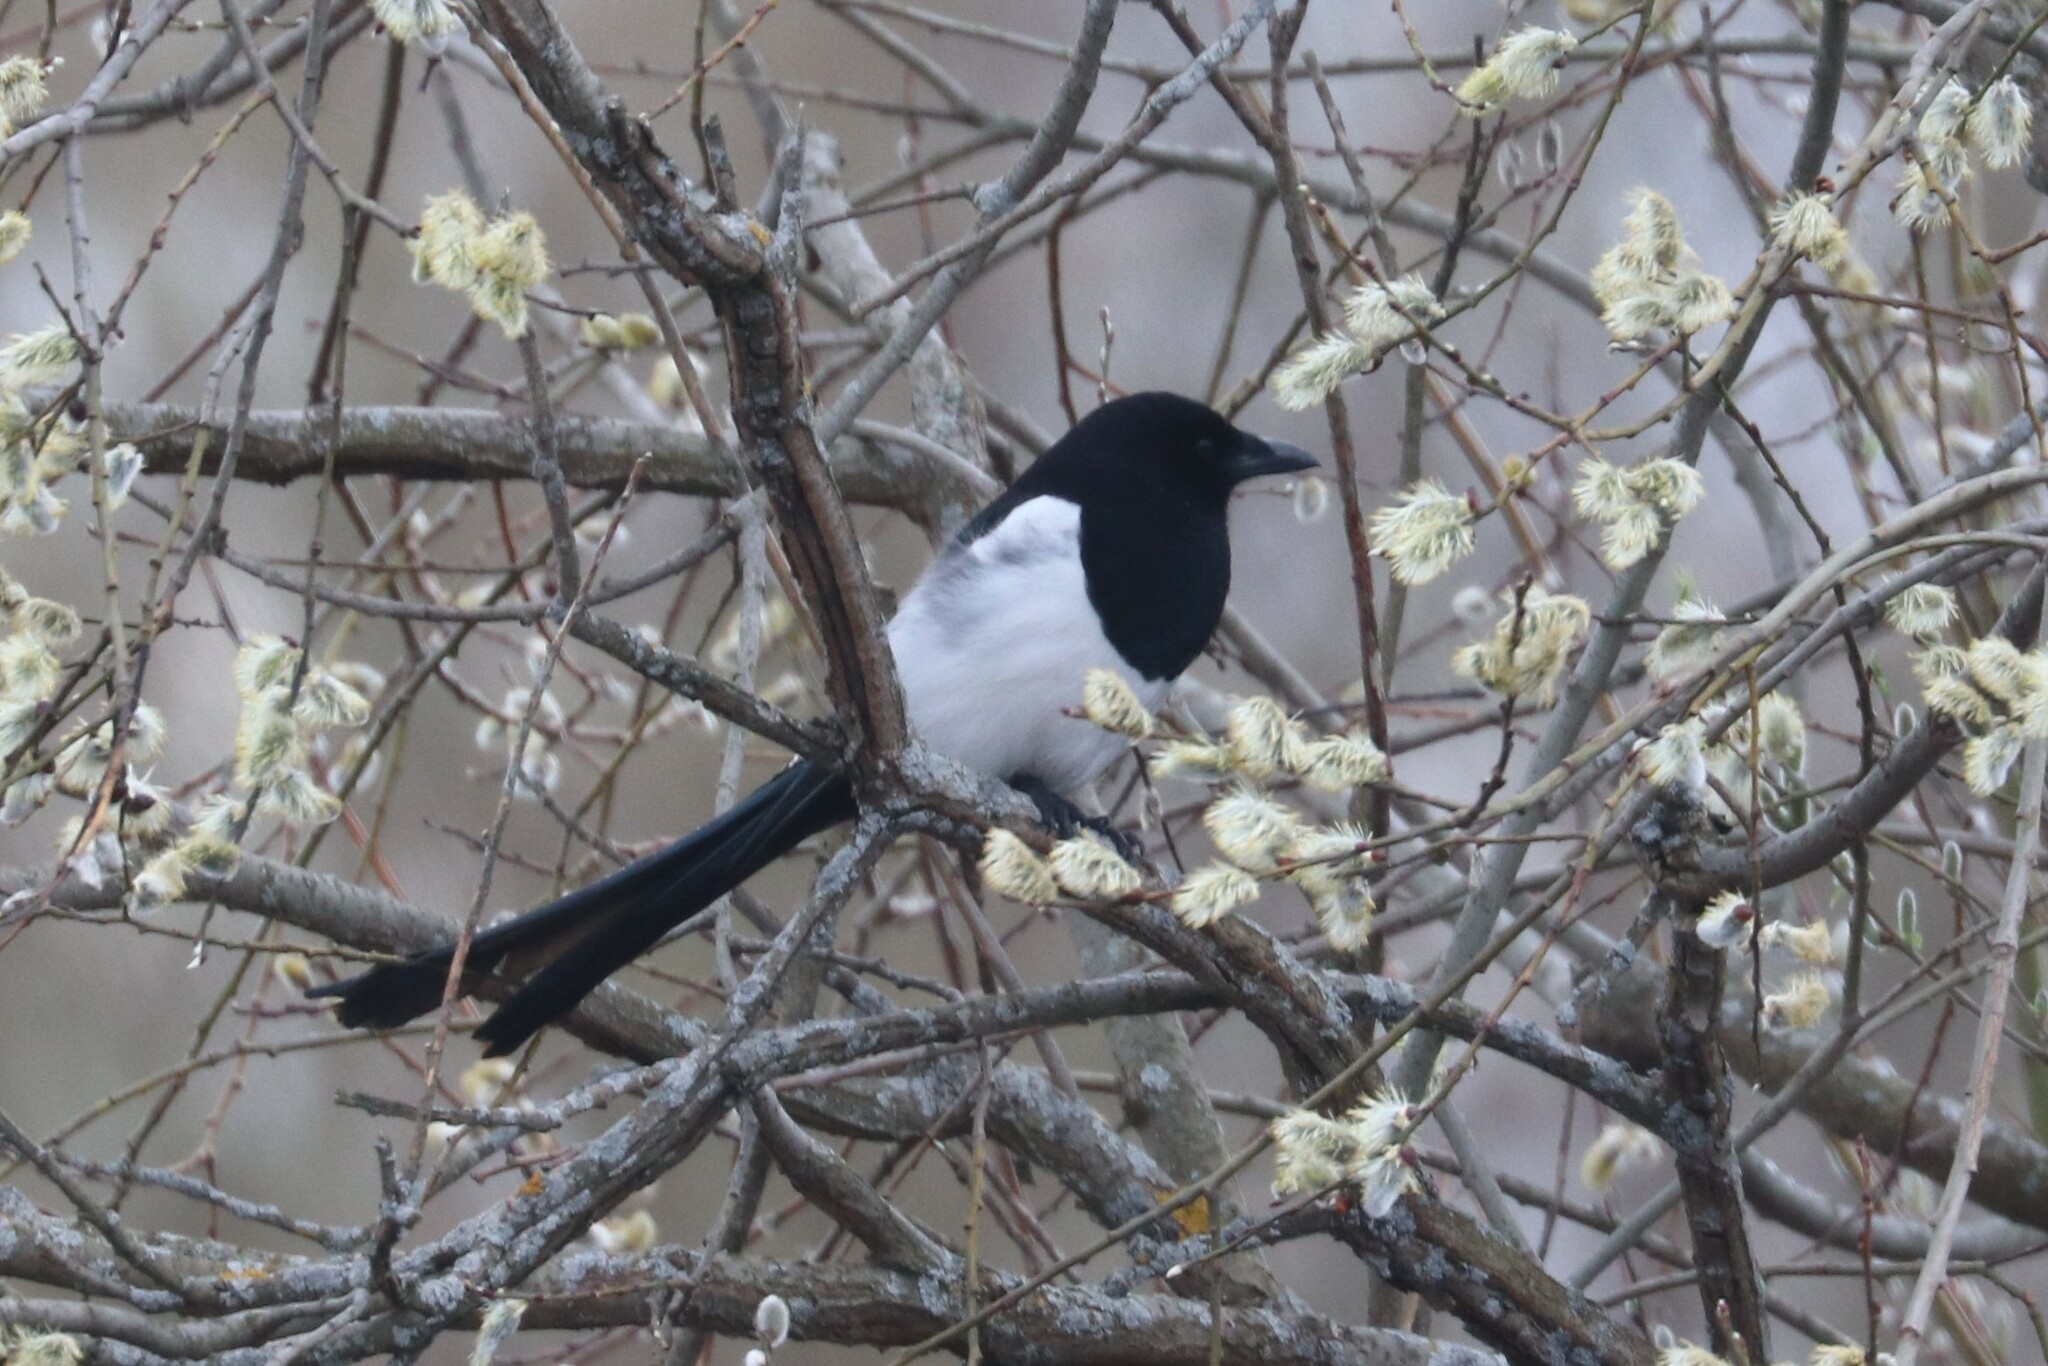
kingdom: Animalia
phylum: Chordata
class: Aves
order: Passeriformes
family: Corvidae
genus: Pica
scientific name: Pica pica
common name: Eurasian magpie
